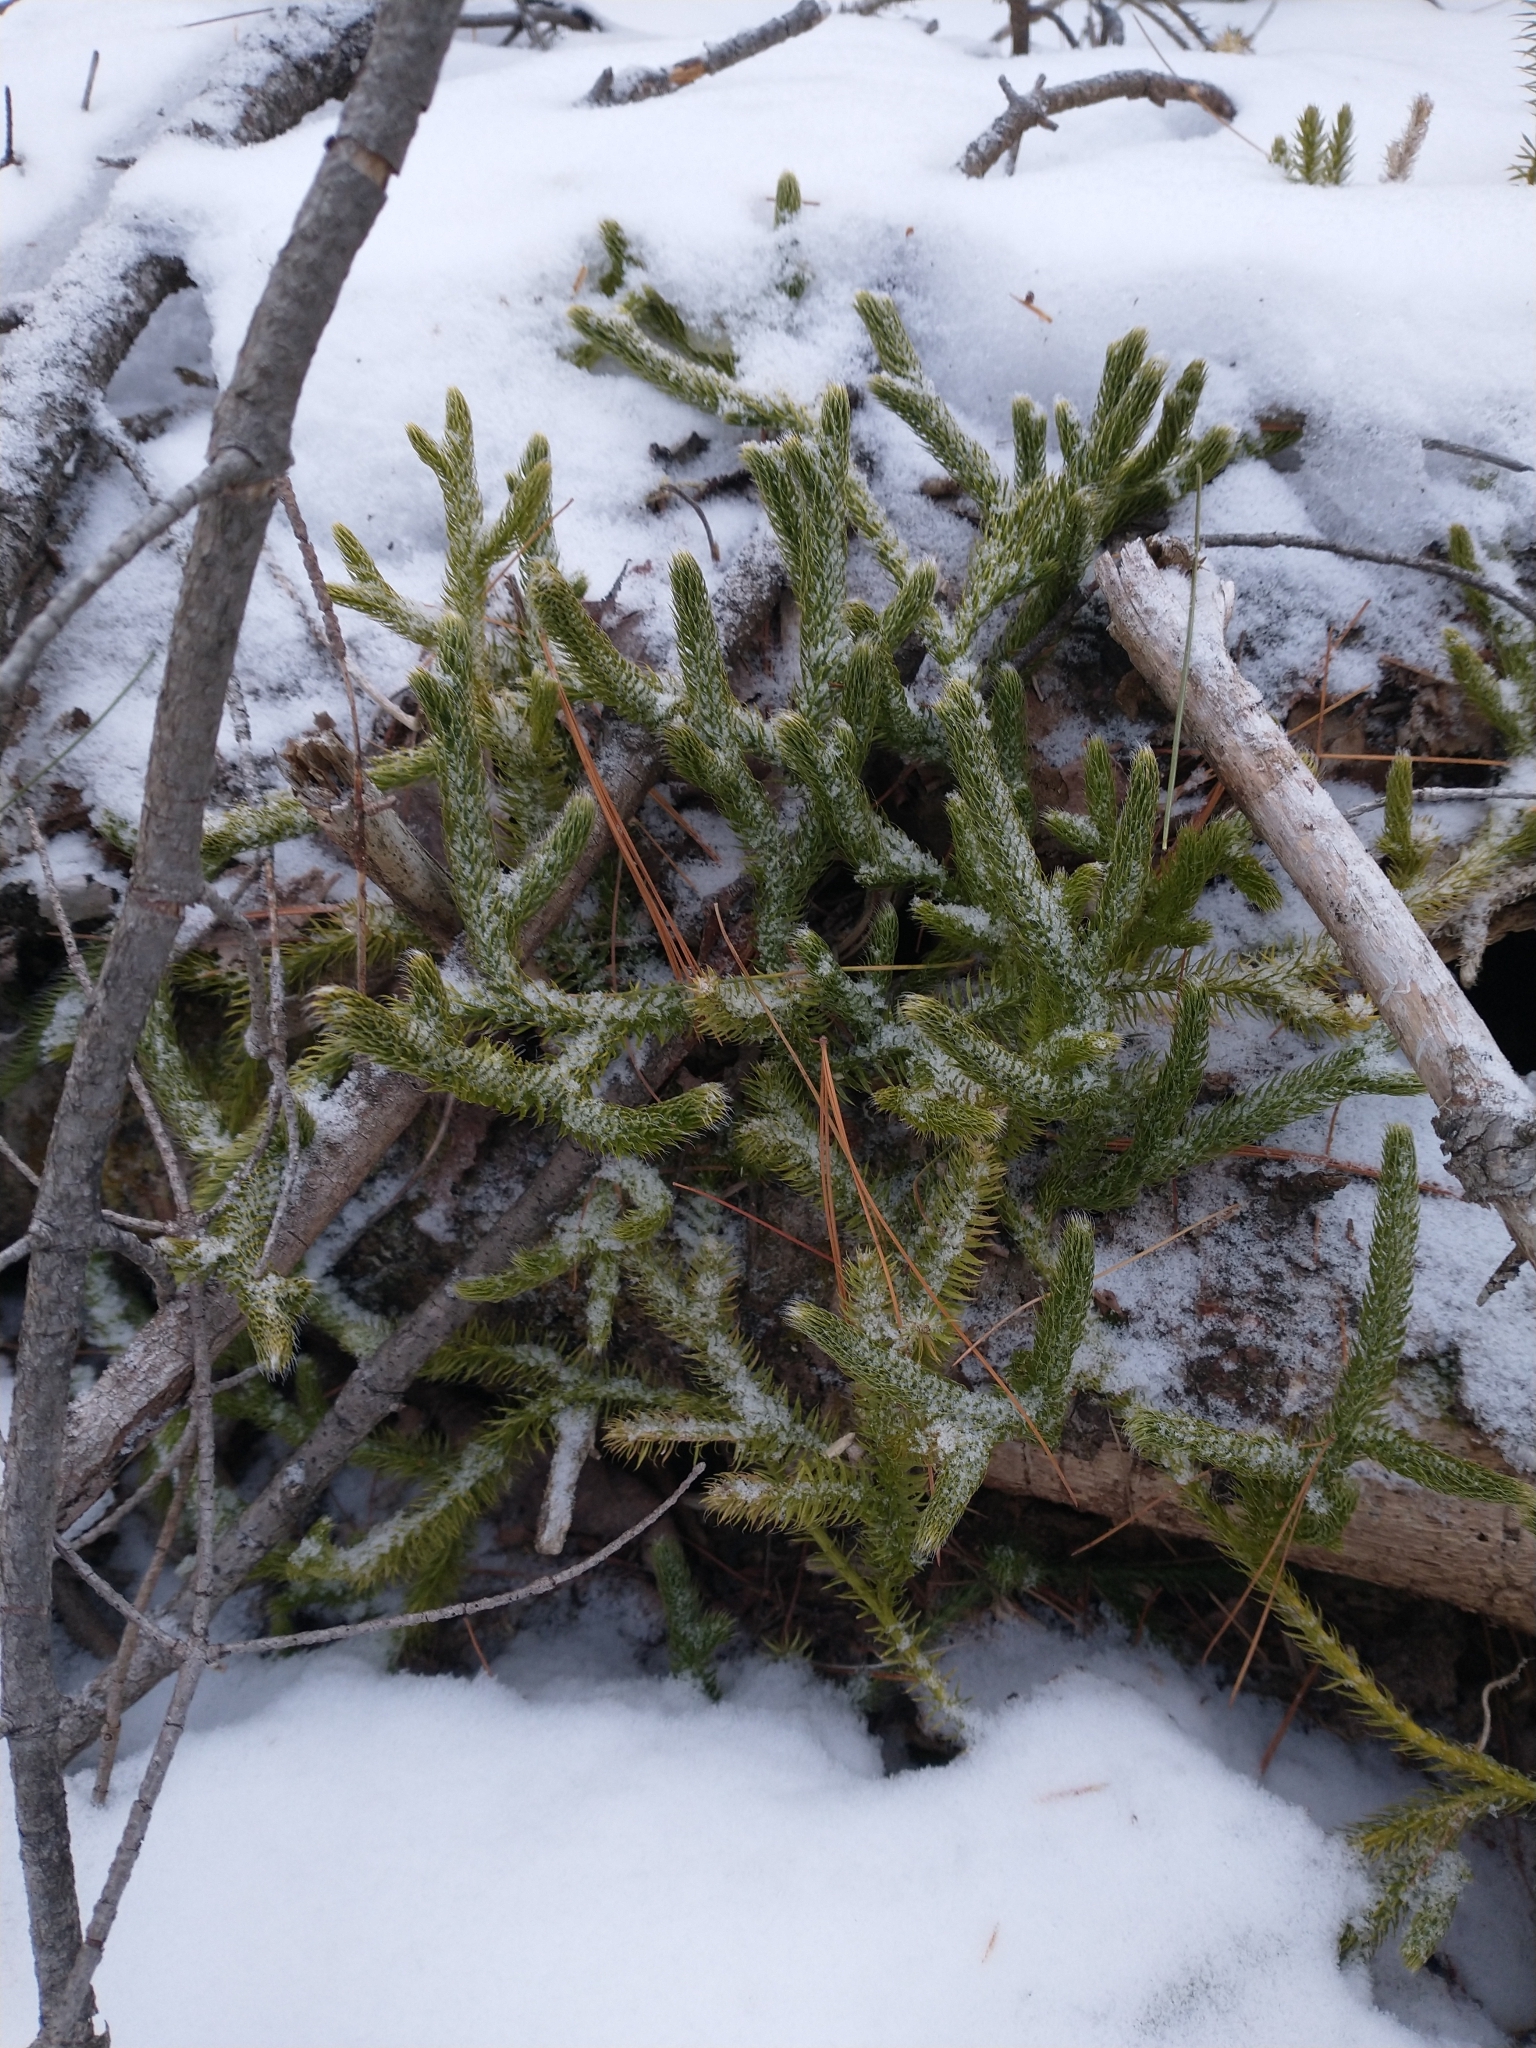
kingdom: Plantae
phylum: Tracheophyta
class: Lycopodiopsida
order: Lycopodiales
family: Lycopodiaceae
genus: Lycopodium
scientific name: Lycopodium clavatum
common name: Stag's-horn clubmoss
